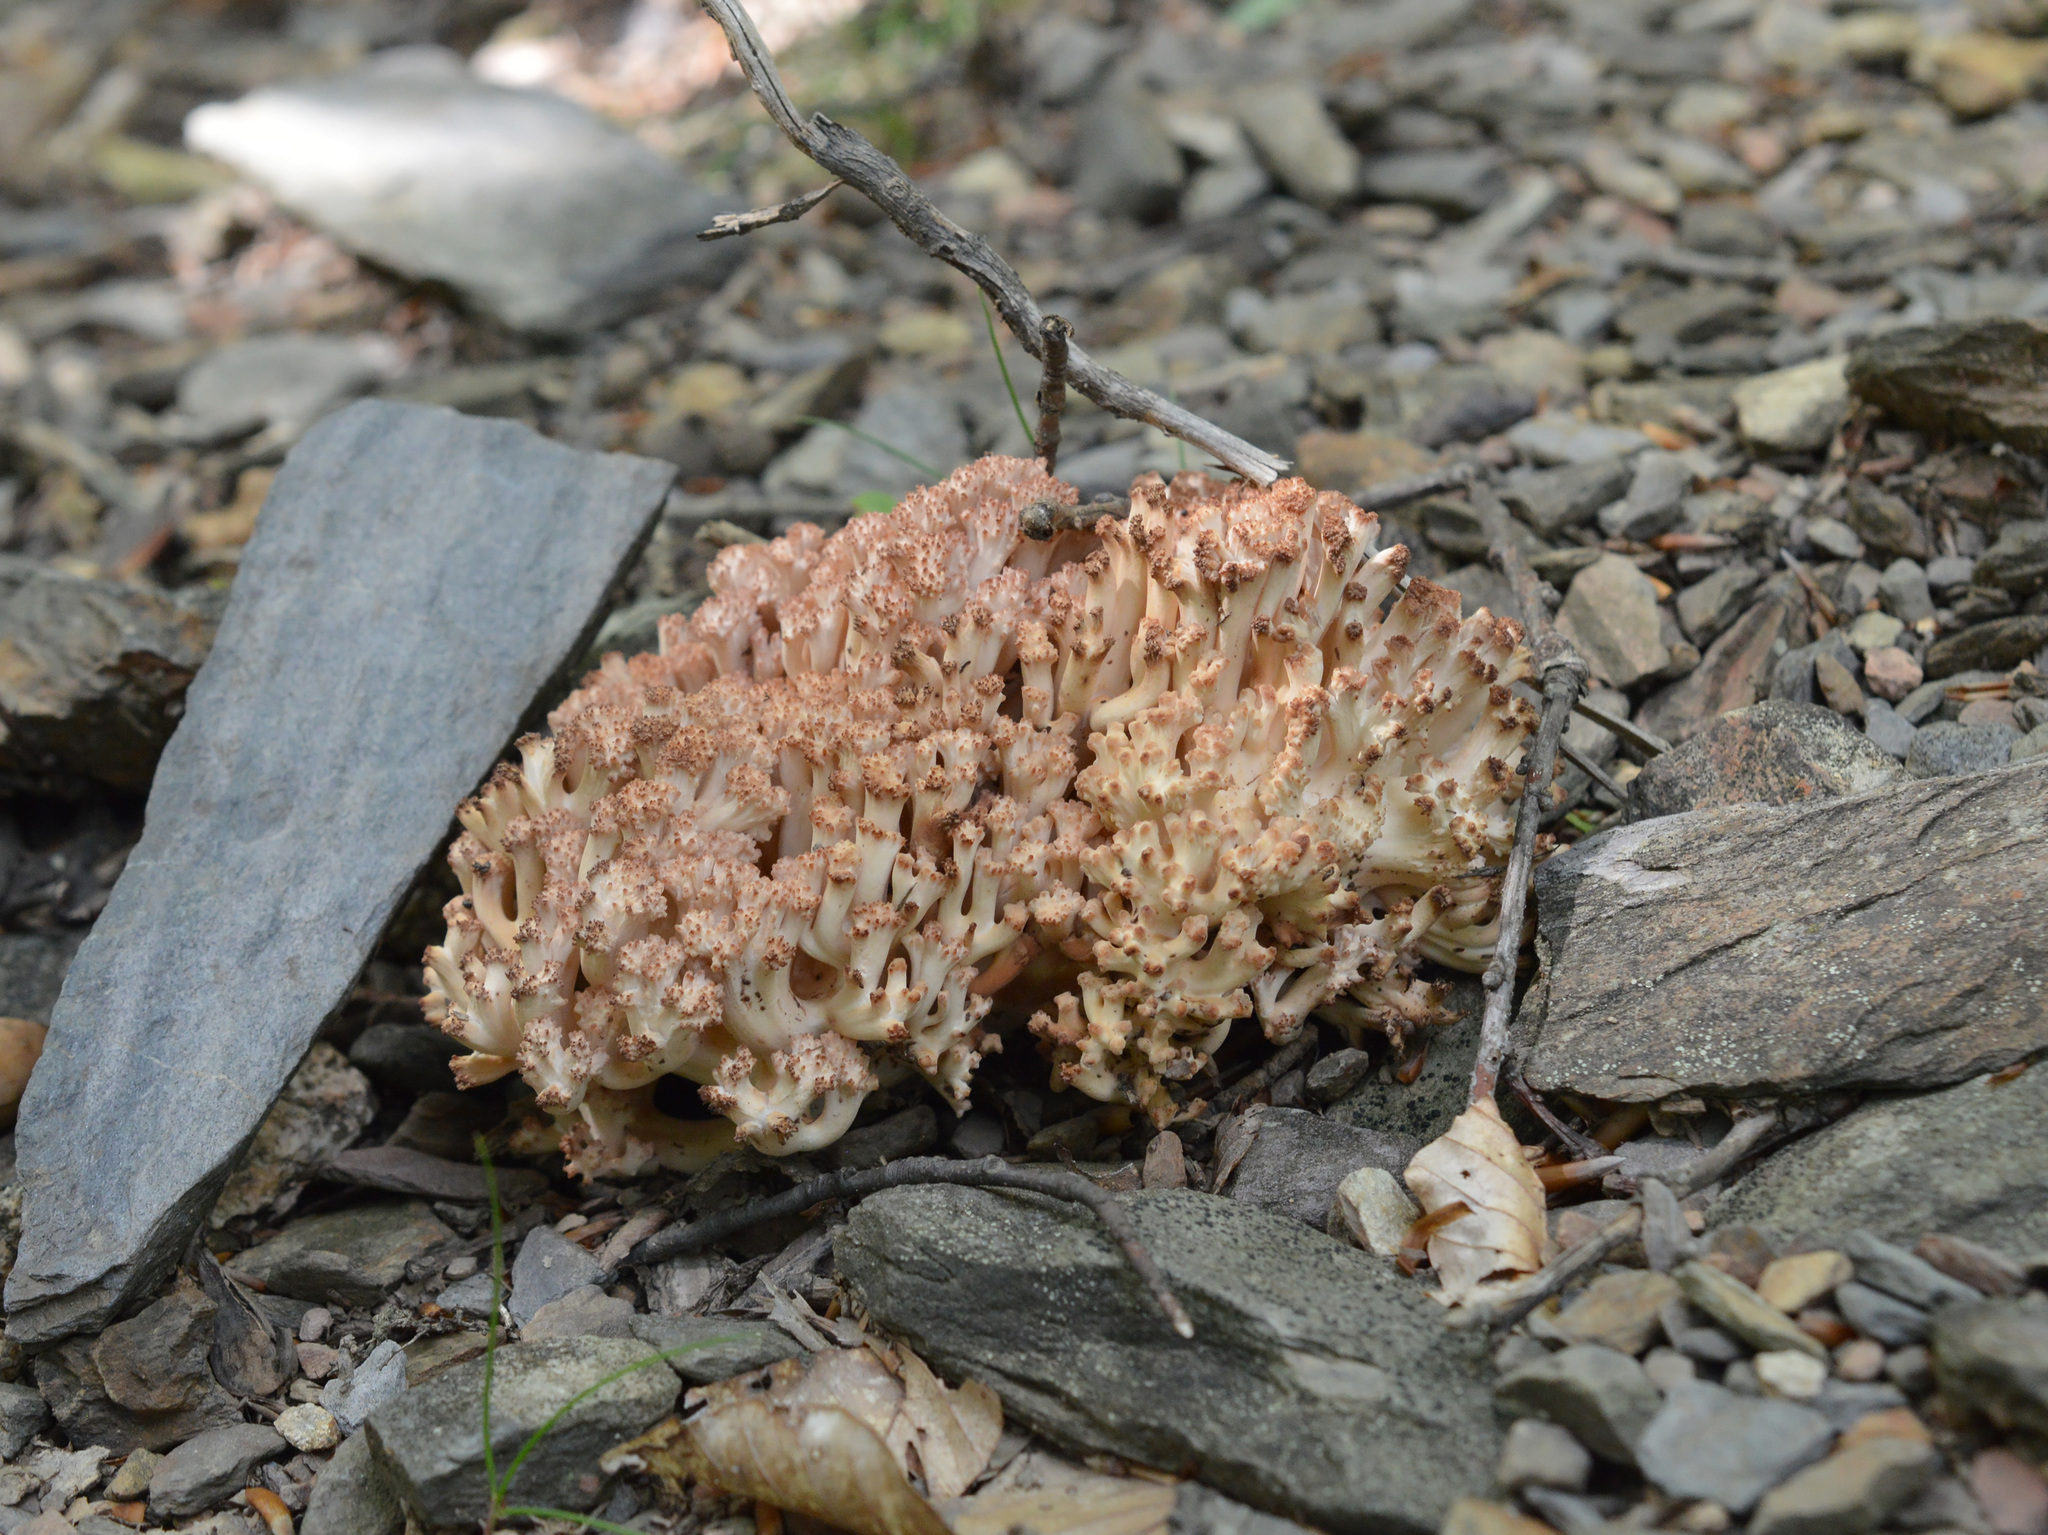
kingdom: Fungi
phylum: Basidiomycota
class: Agaricomycetes
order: Gomphales
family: Gomphaceae
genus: Ramaria
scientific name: Ramaria botrytis
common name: Rosso coral
